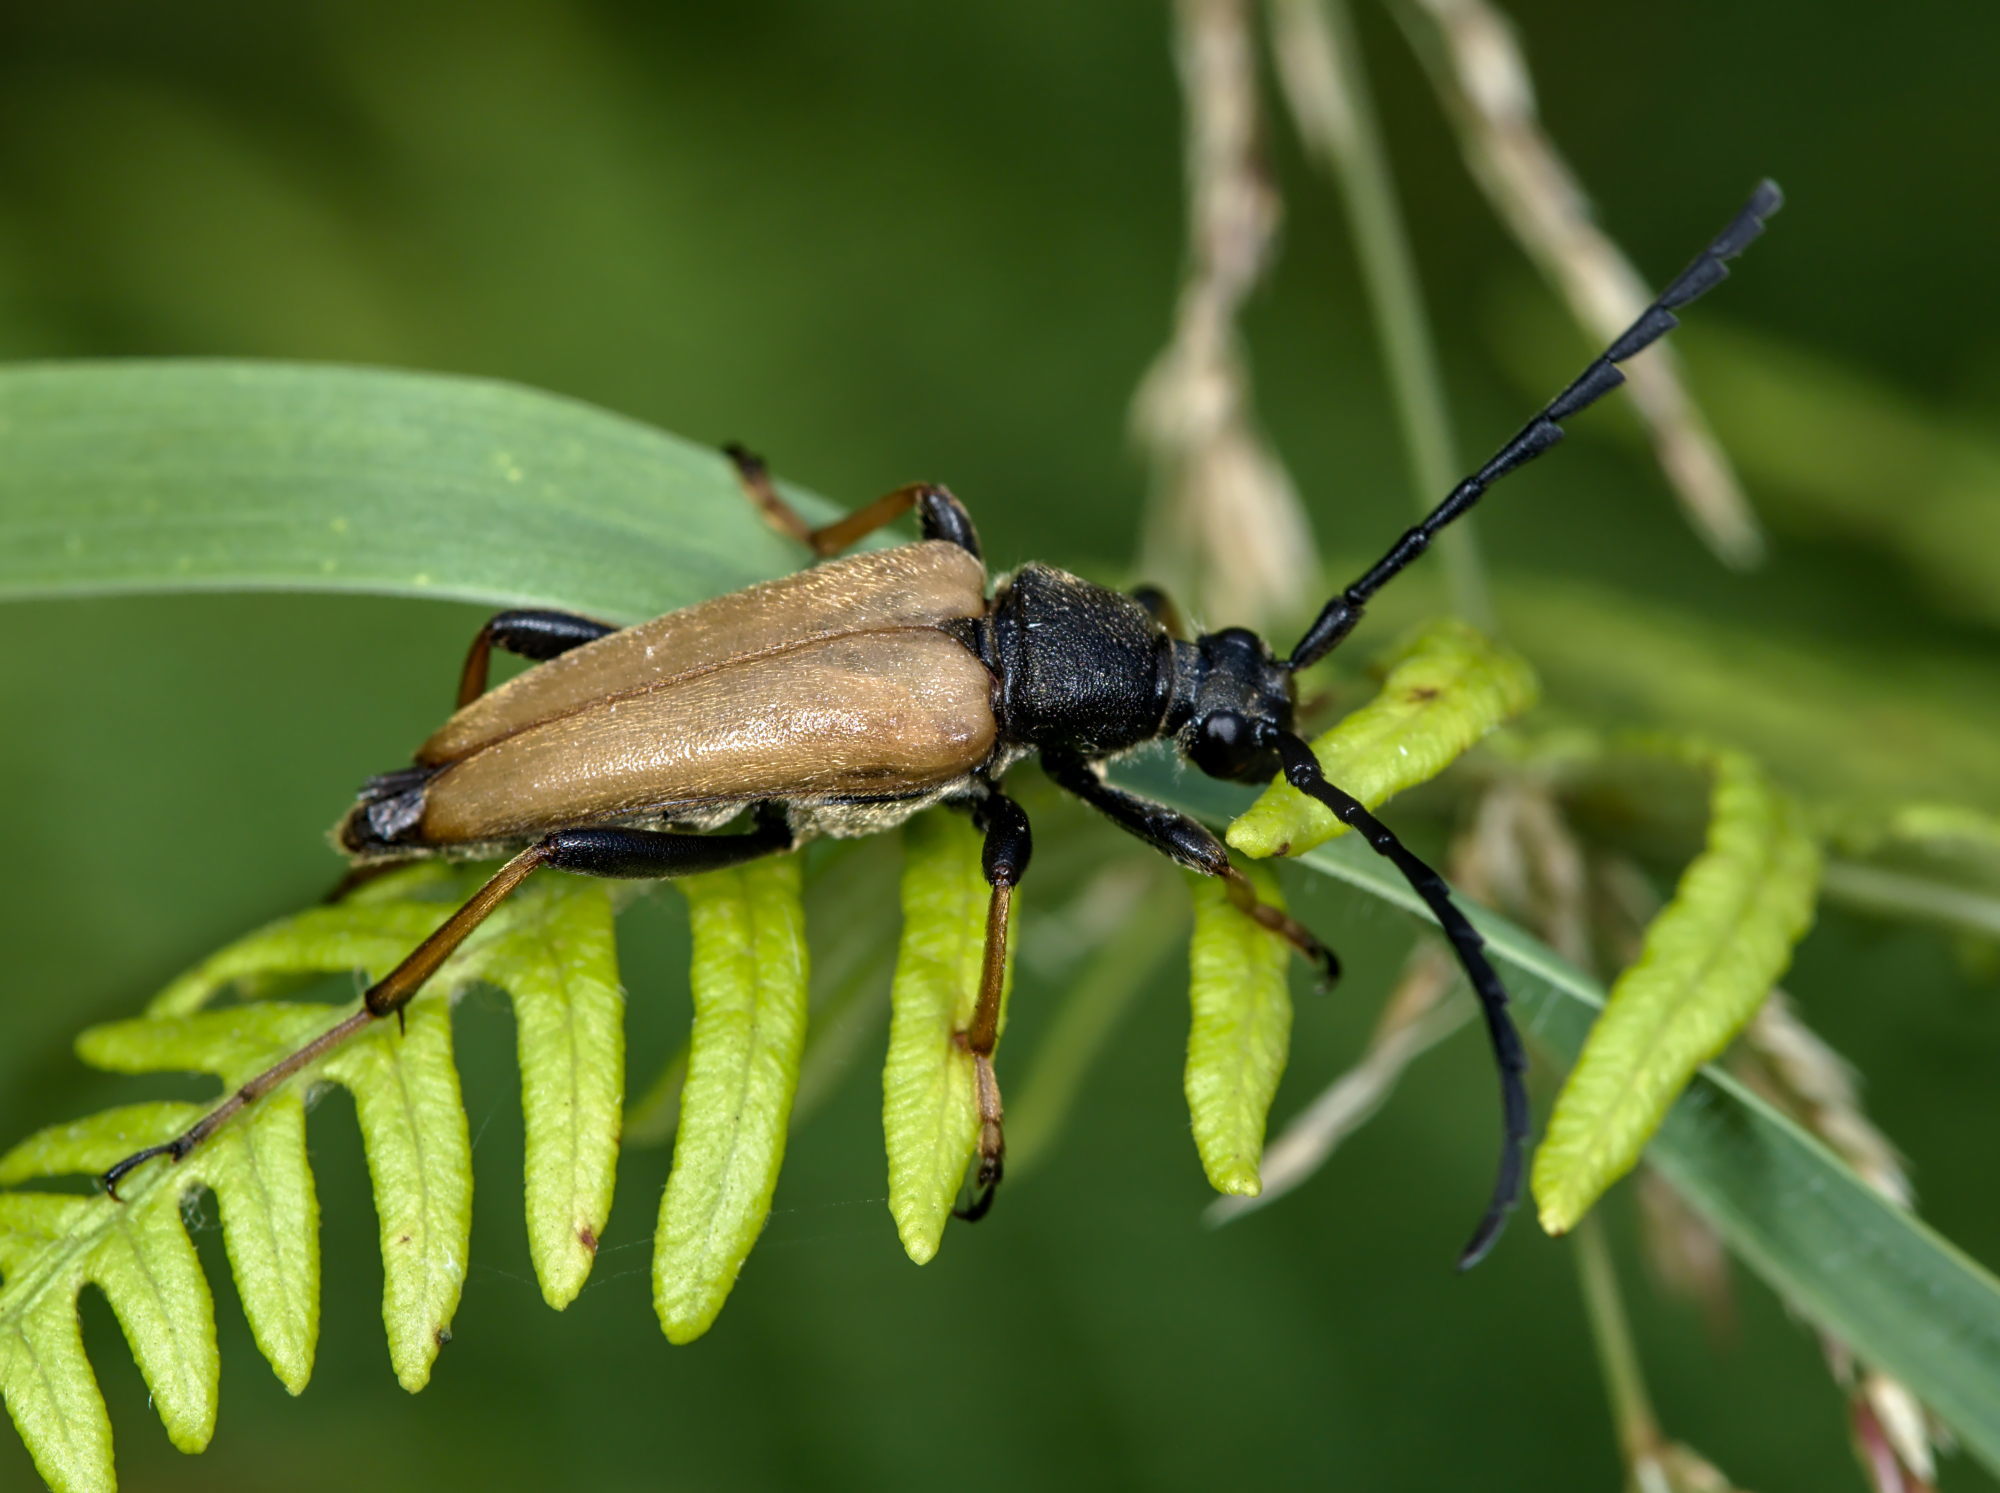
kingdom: Animalia
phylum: Arthropoda
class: Insecta
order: Coleoptera
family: Cerambycidae
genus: Stictoleptura
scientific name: Stictoleptura rubra
